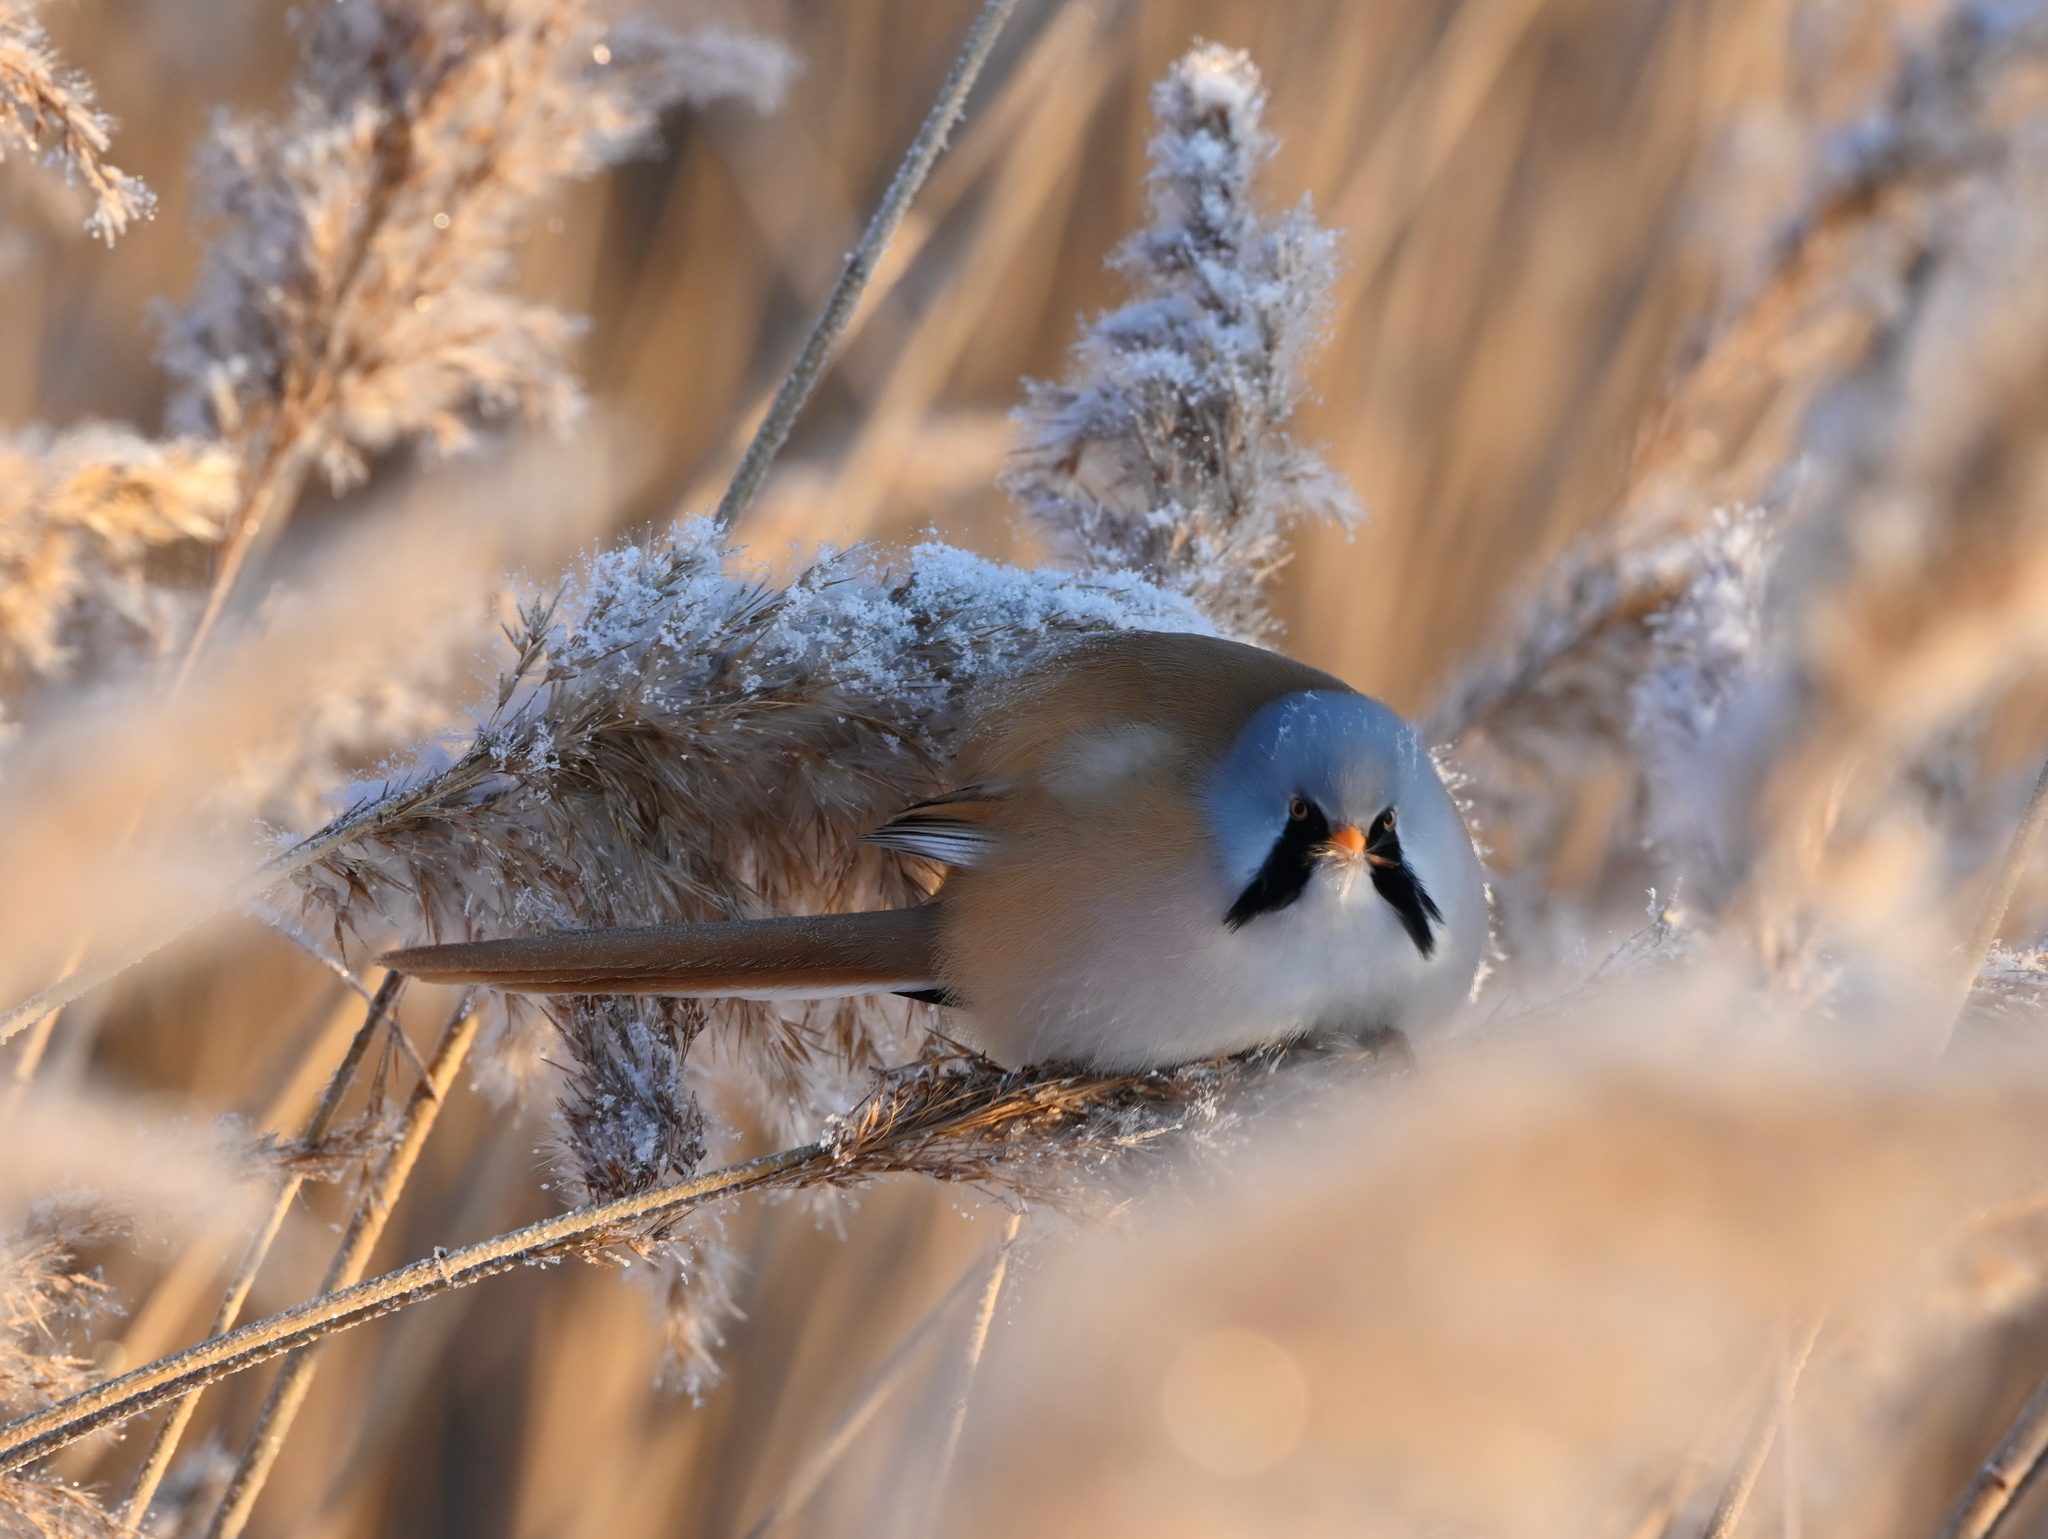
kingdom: Animalia
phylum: Chordata
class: Aves
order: Passeriformes
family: Panuridae
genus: Panurus
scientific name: Panurus biarmicus
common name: Bearded reedling
